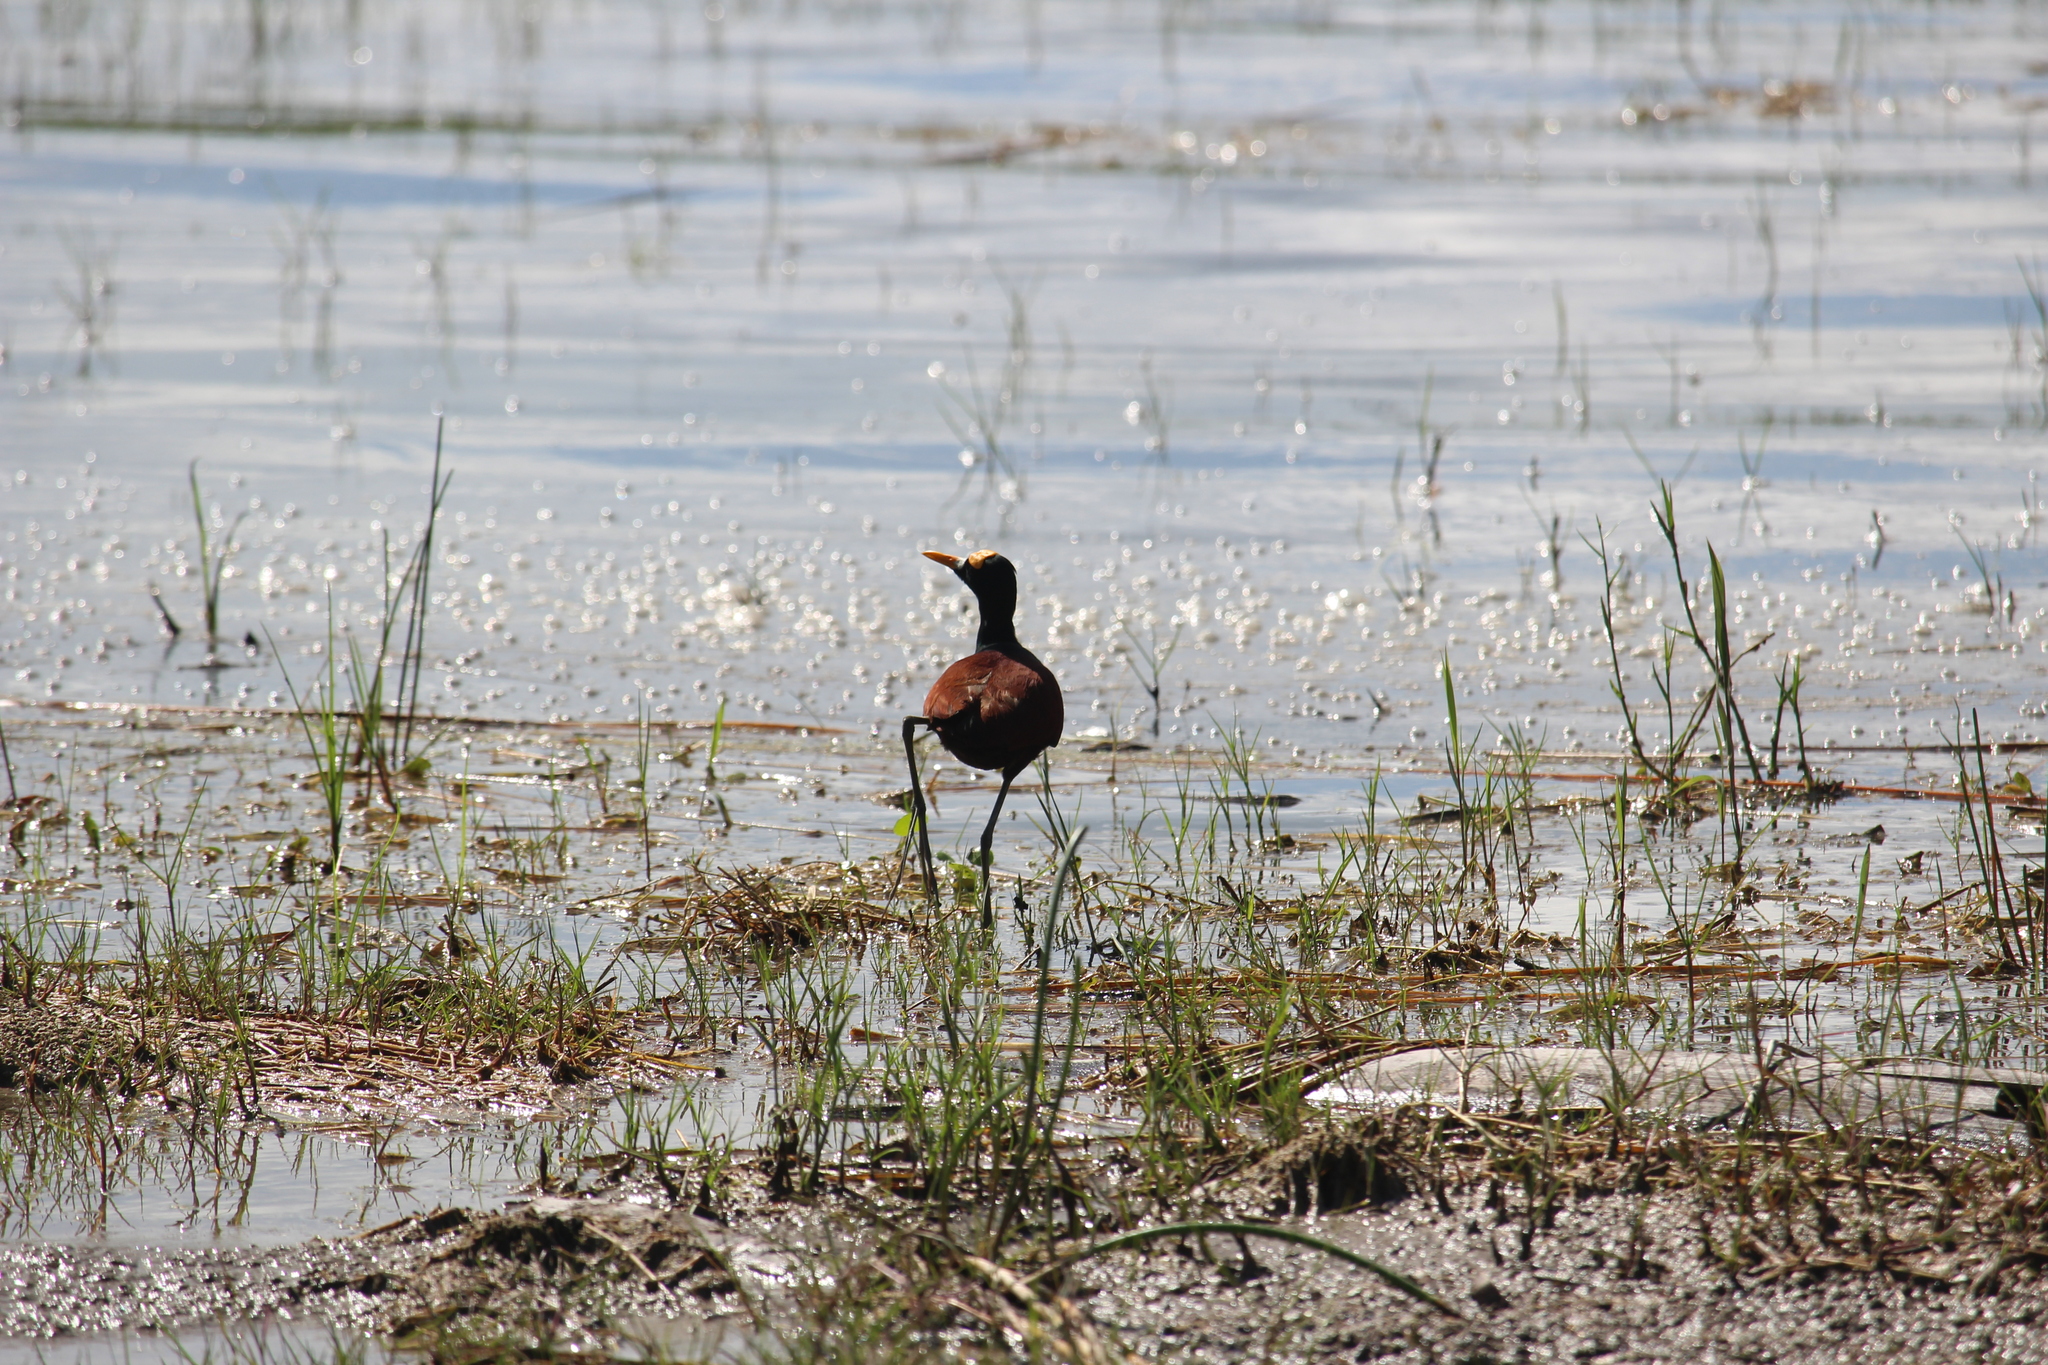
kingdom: Animalia
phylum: Chordata
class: Aves
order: Charadriiformes
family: Jacanidae
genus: Jacana
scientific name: Jacana spinosa
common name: Northern jacana
